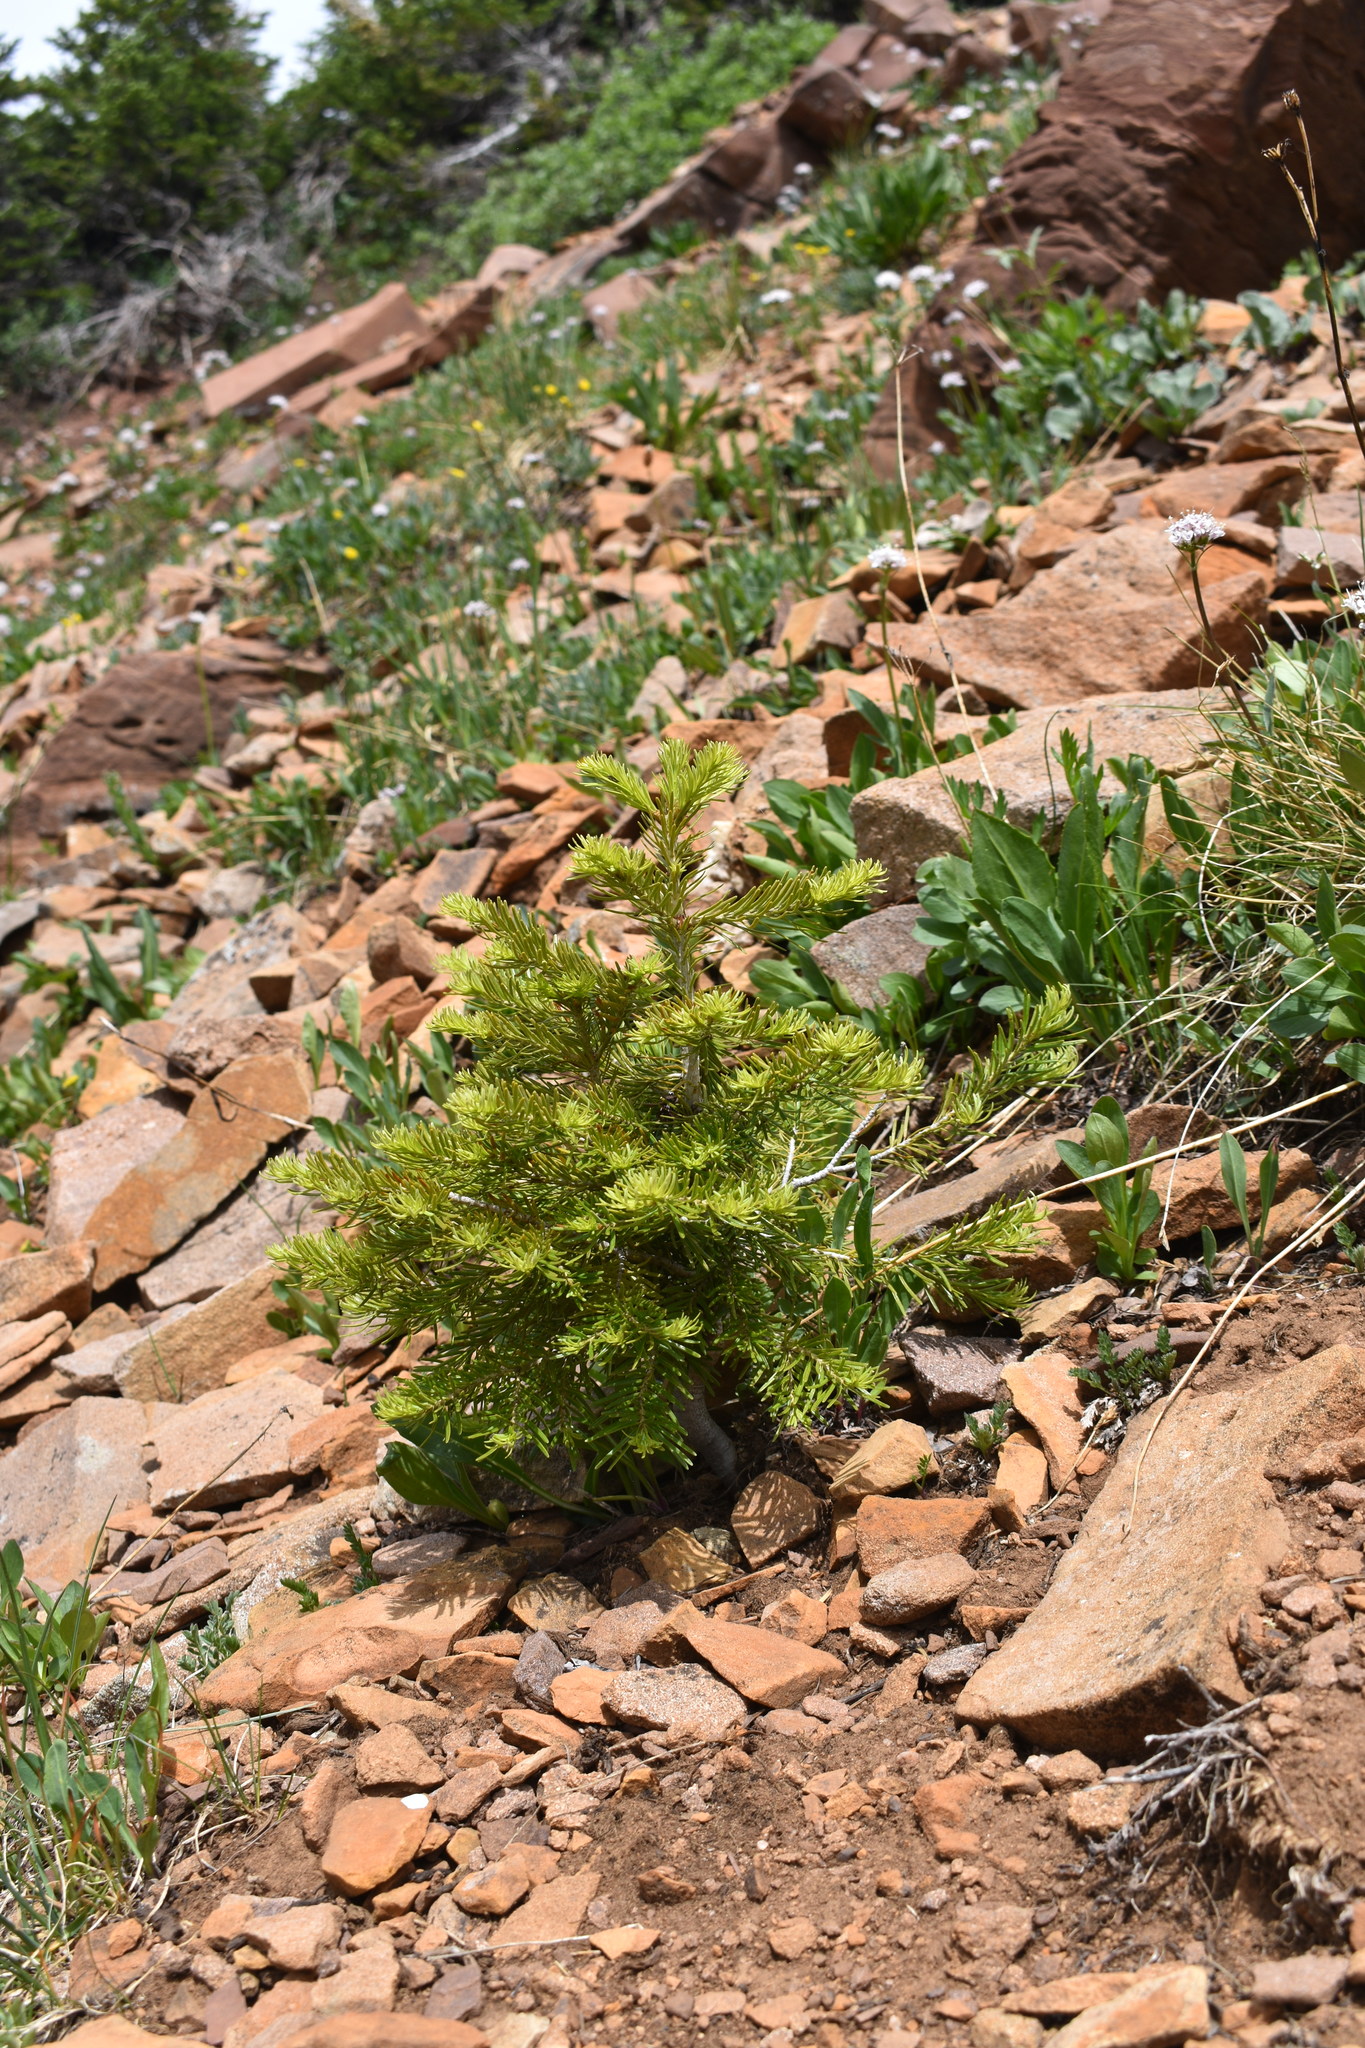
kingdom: Plantae
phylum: Tracheophyta
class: Pinopsida
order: Pinales
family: Pinaceae
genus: Abies
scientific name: Abies lasiocarpa
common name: Subalpine fir
